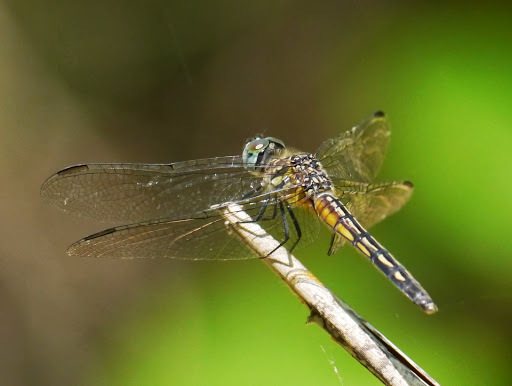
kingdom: Animalia
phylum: Arthropoda
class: Insecta
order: Odonata
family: Libellulidae
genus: Pachydiplax
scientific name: Pachydiplax longipennis
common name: Blue dasher
